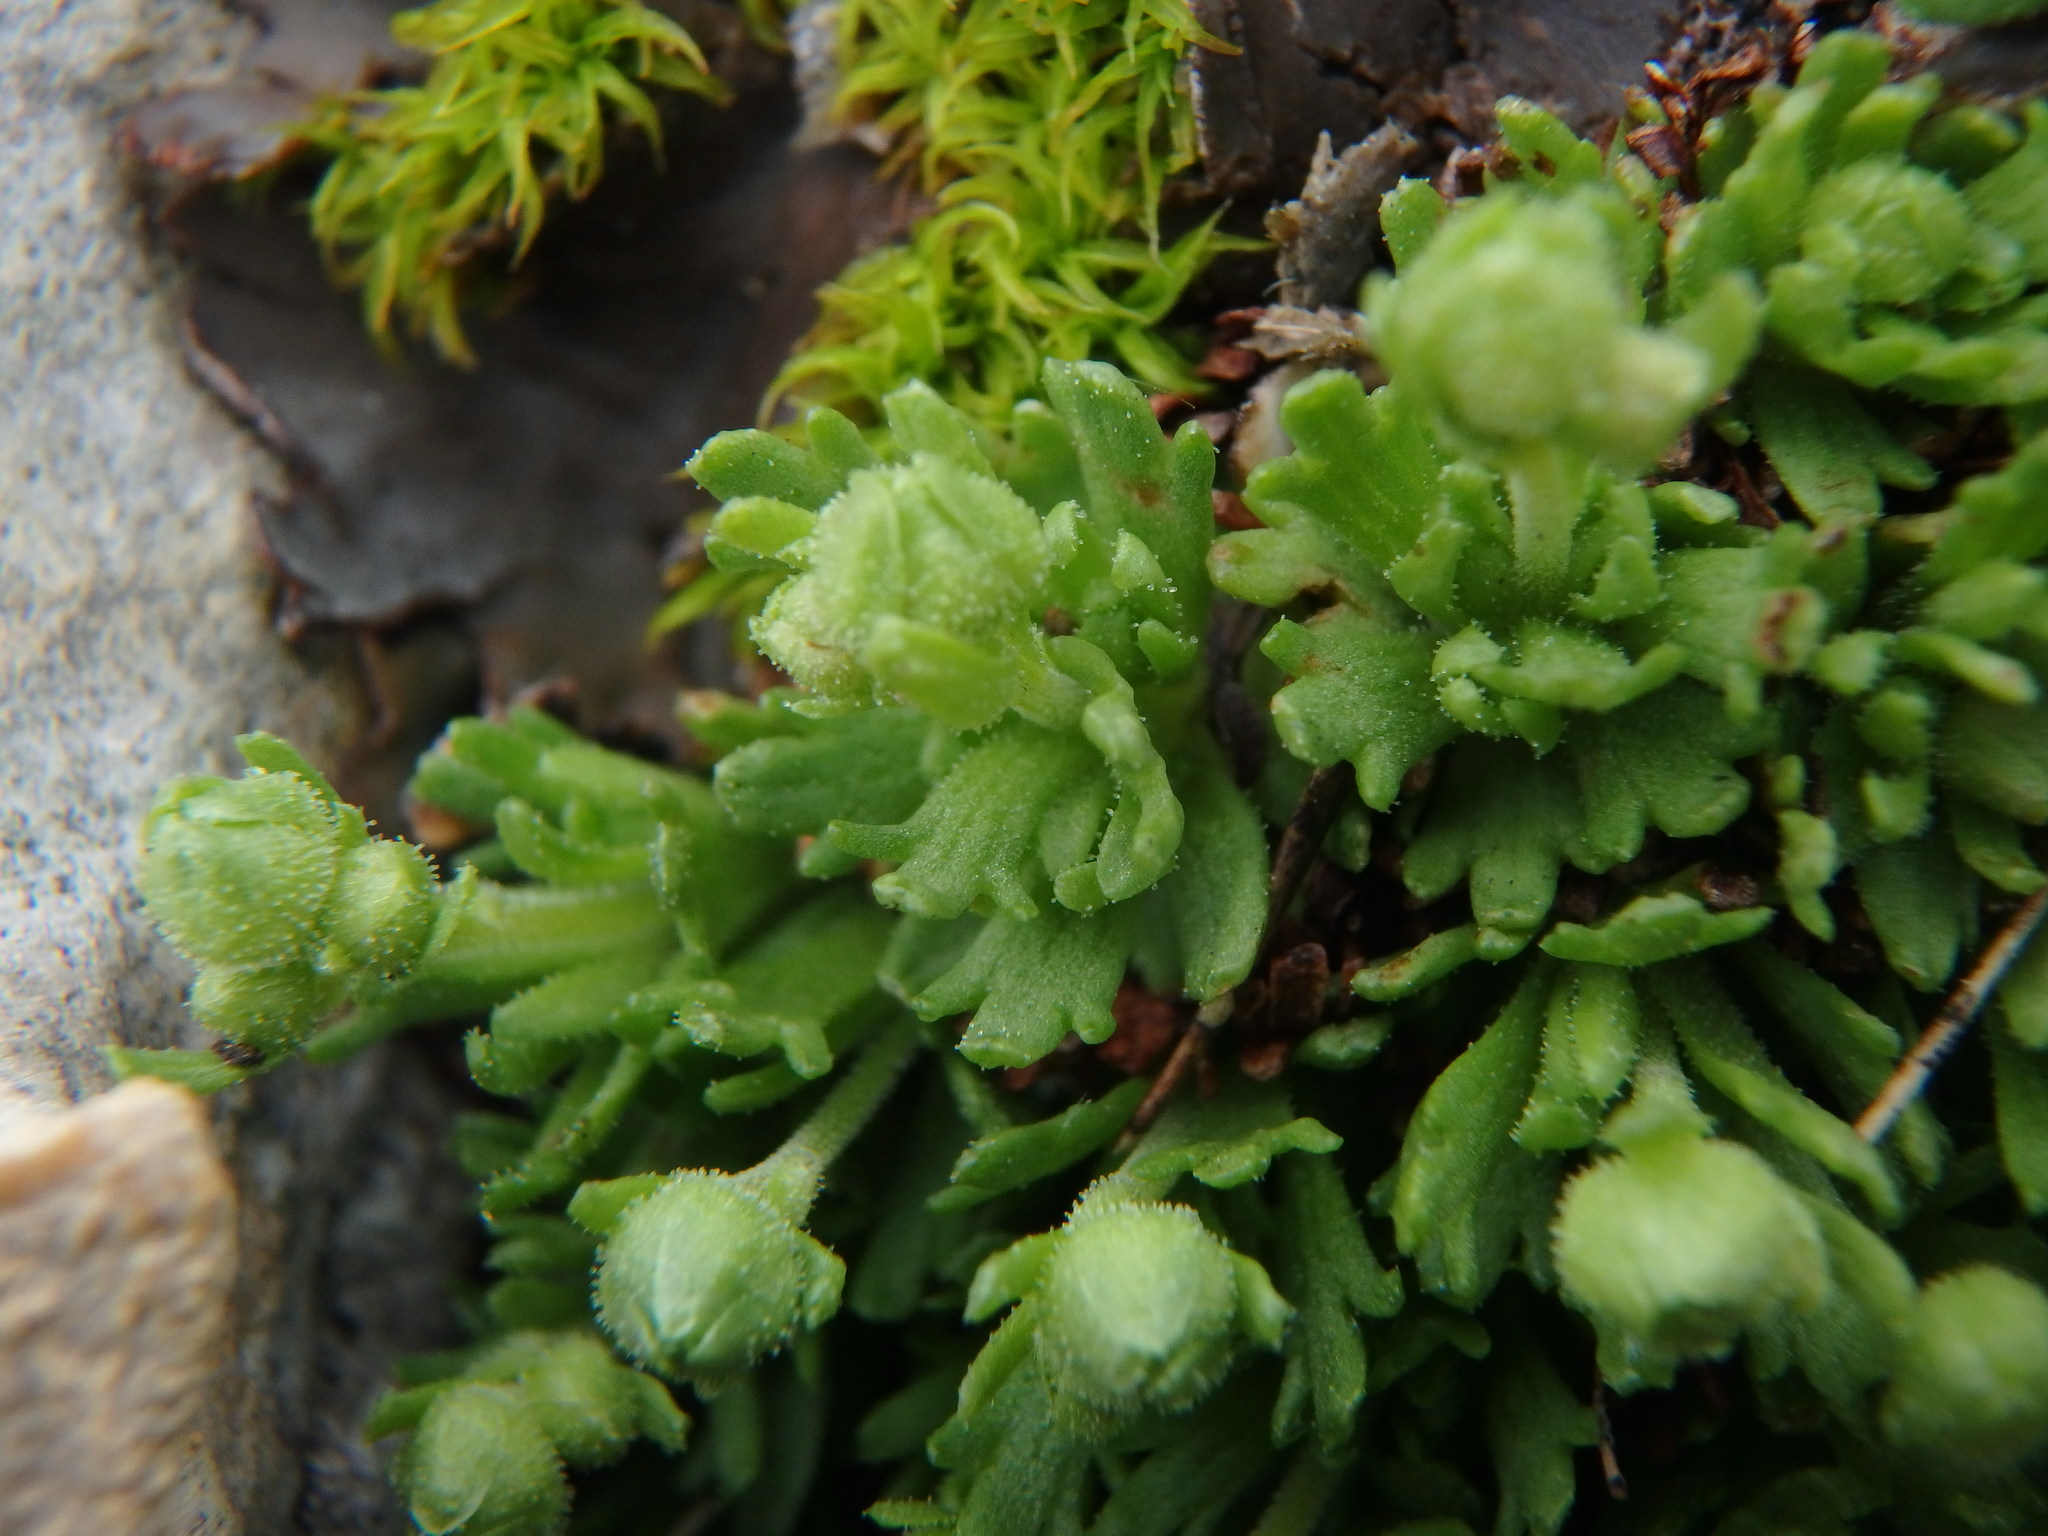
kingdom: Plantae
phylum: Tracheophyta
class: Magnoliopsida
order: Saxifragales
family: Saxifragaceae
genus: Saxifraga
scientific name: Saxifraga exarata
